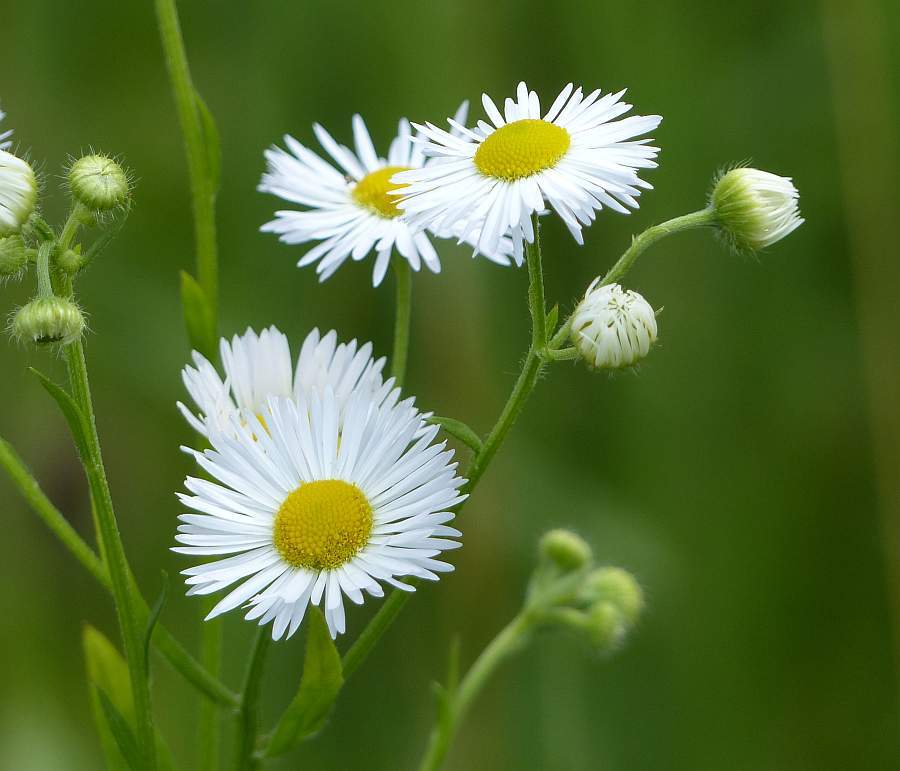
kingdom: Plantae
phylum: Tracheophyta
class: Magnoliopsida
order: Asterales
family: Asteraceae
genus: Erigeron
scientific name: Erigeron strigosus
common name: Common eastern fleabane
